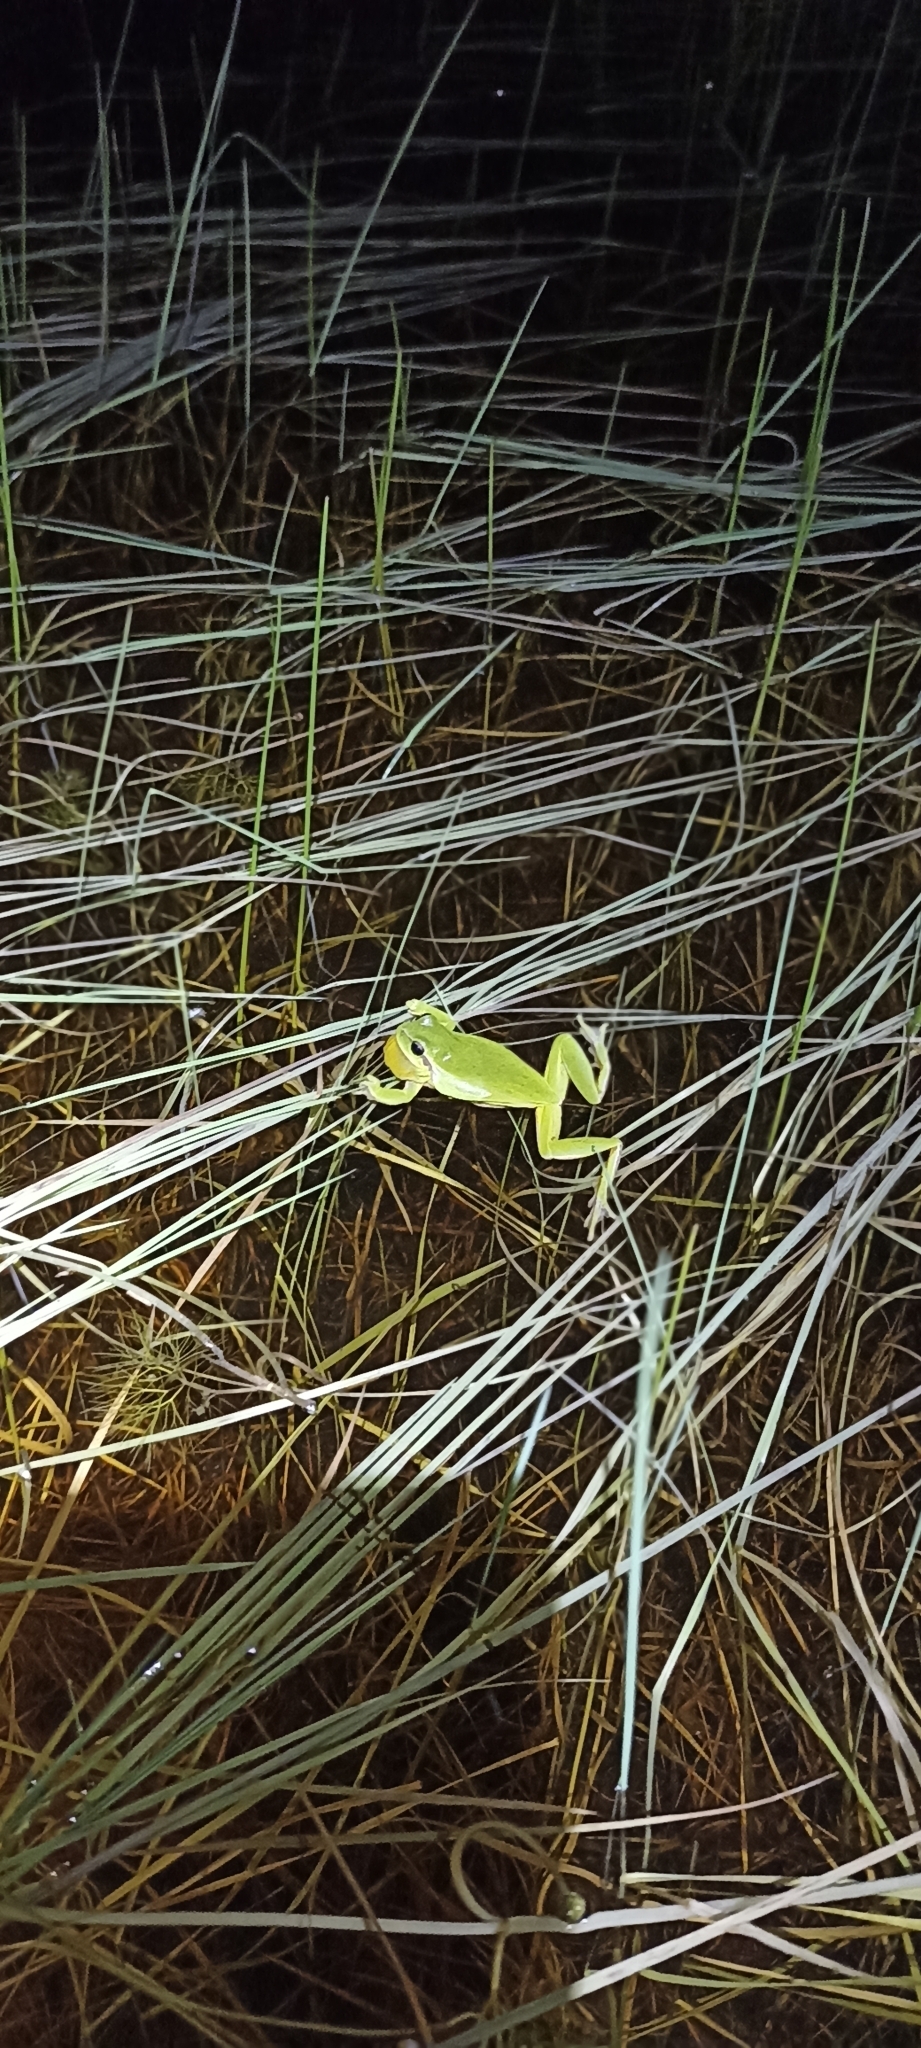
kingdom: Animalia
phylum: Chordata
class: Amphibia
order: Anura
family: Hylidae
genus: Hyla
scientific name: Hyla meridionalis
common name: Stripeless tree frog
